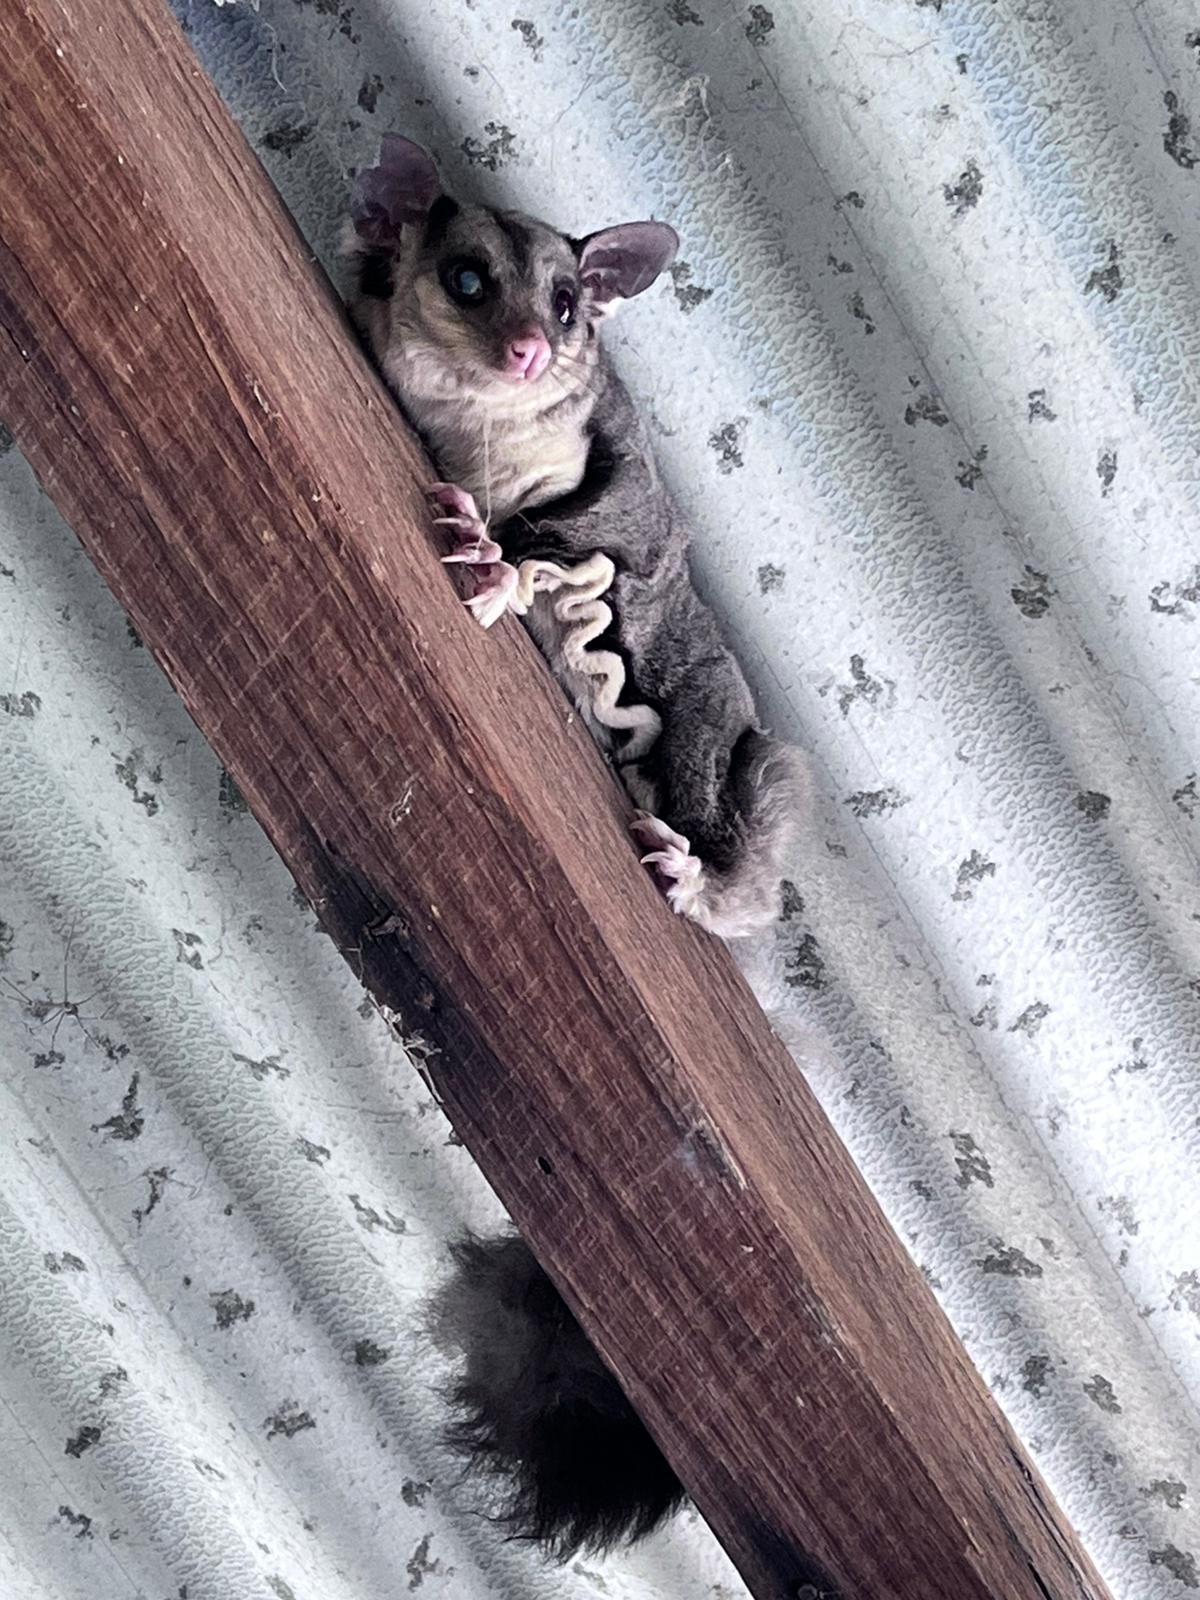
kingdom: Animalia
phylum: Chordata
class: Mammalia
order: Diprotodontia
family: Petauridae
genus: Petaurus
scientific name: Petaurus breviceps
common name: Sugar glider
